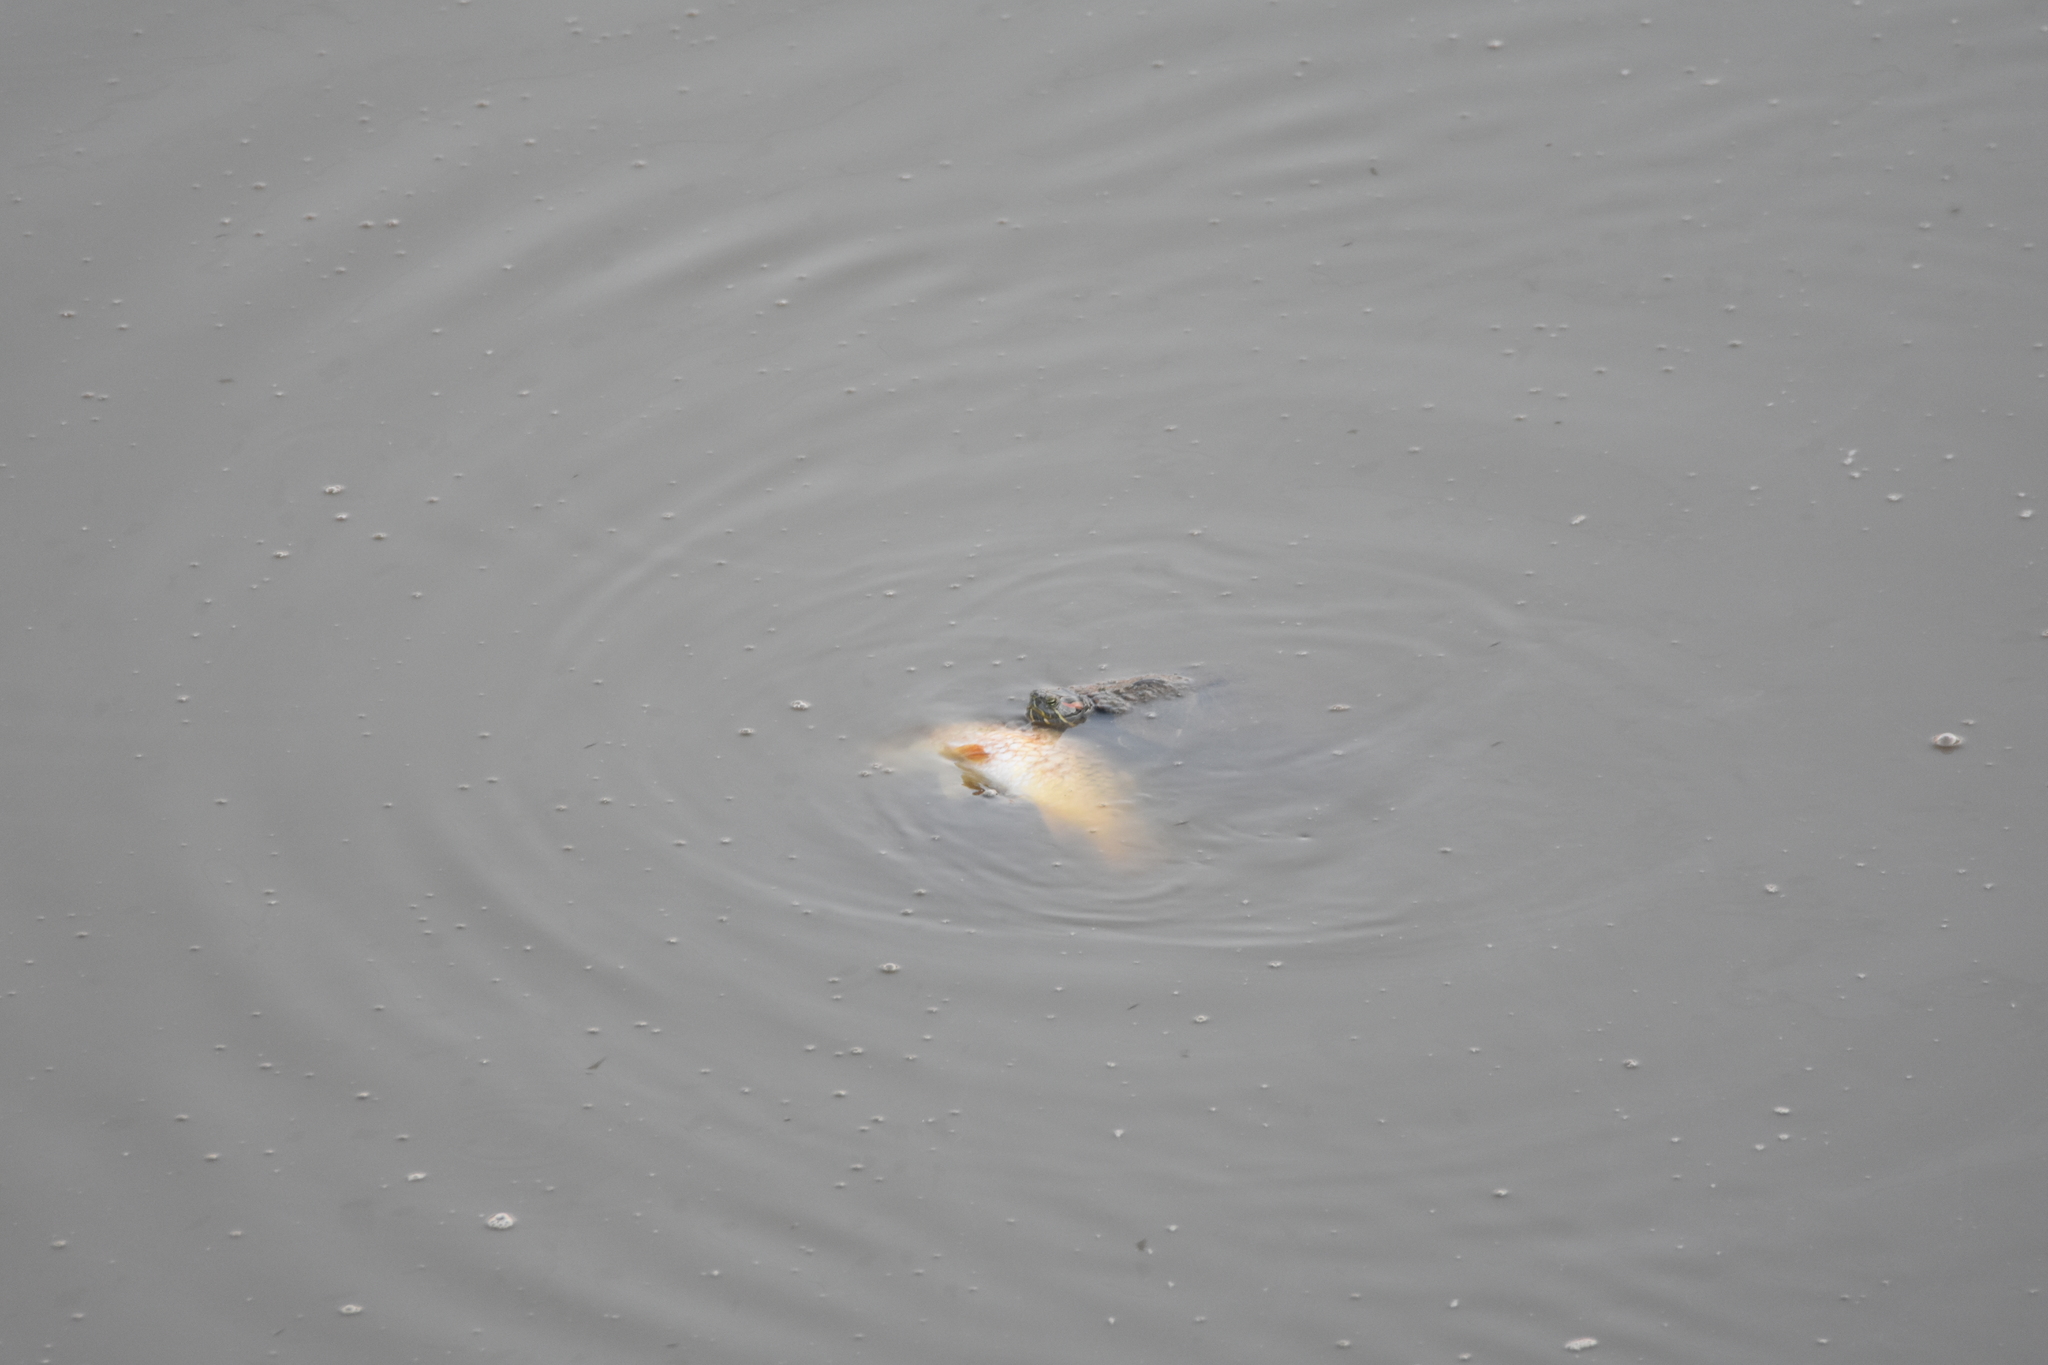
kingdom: Animalia
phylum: Chordata
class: Testudines
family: Emydidae
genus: Trachemys
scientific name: Trachemys scripta
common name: Slider
